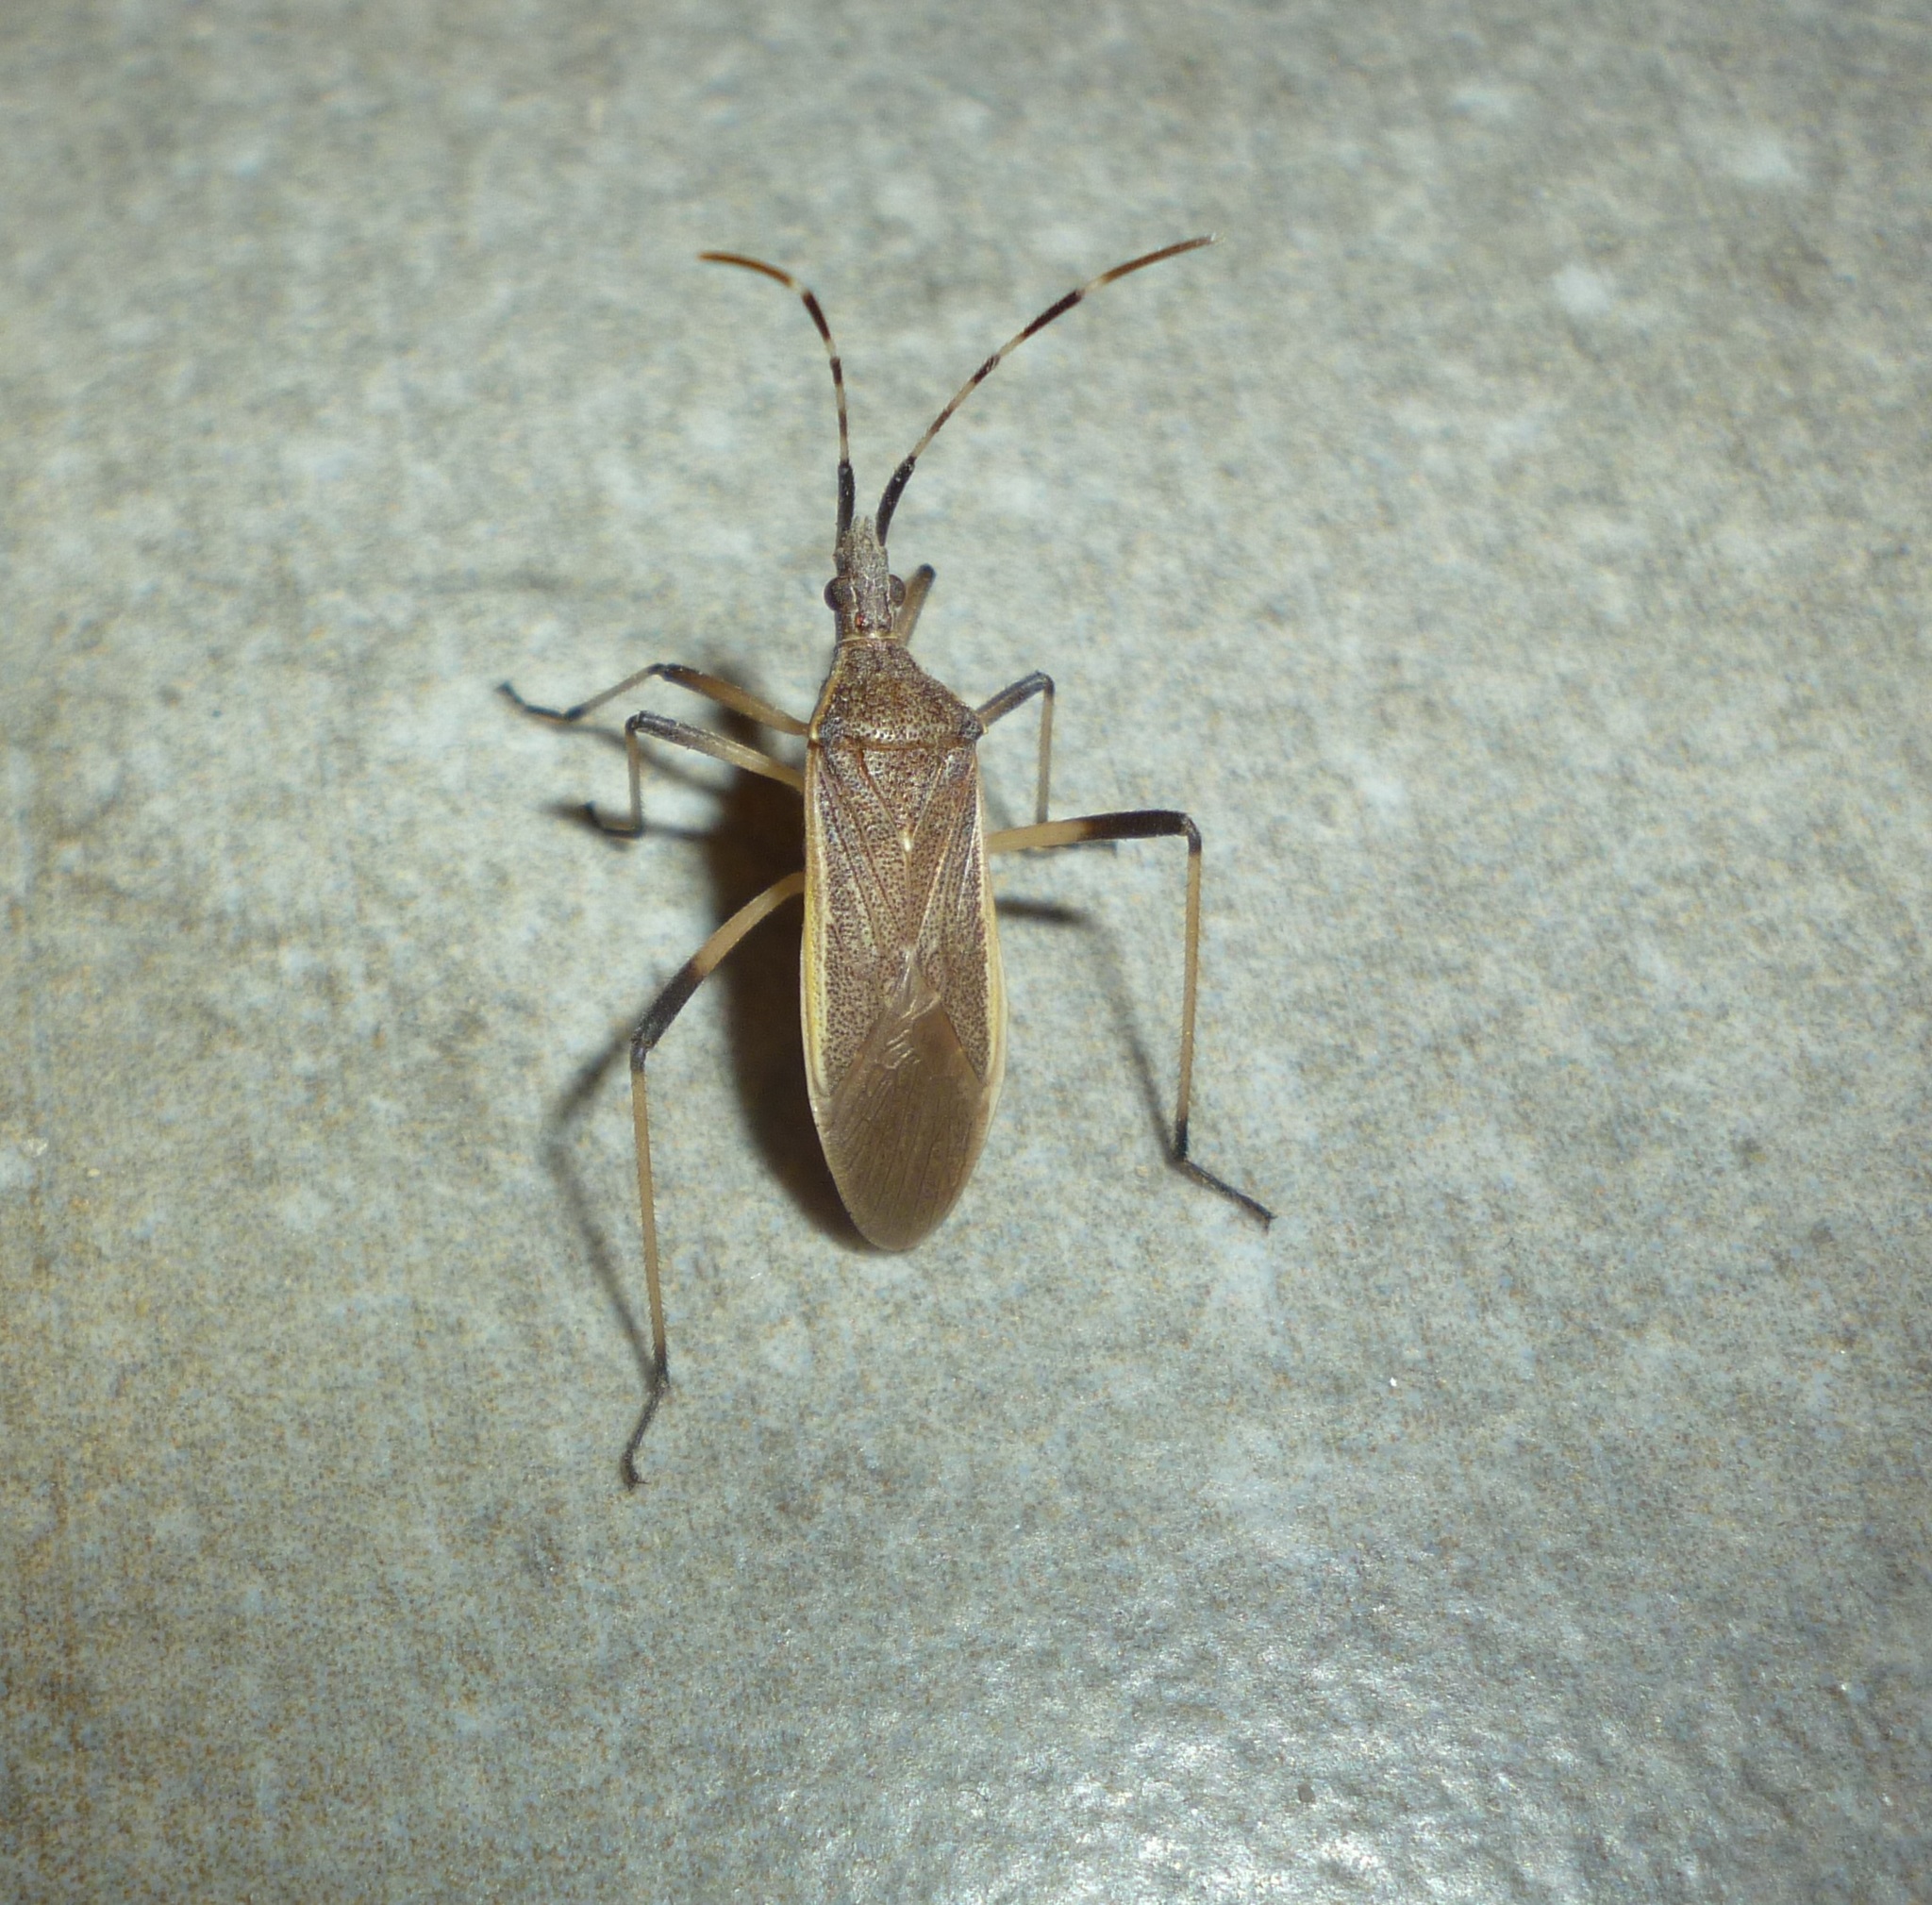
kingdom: Animalia
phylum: Arthropoda
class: Insecta
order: Hemiptera
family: Stenocephalidae
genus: Dicranocephalus
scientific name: Dicranocephalus marginatus
